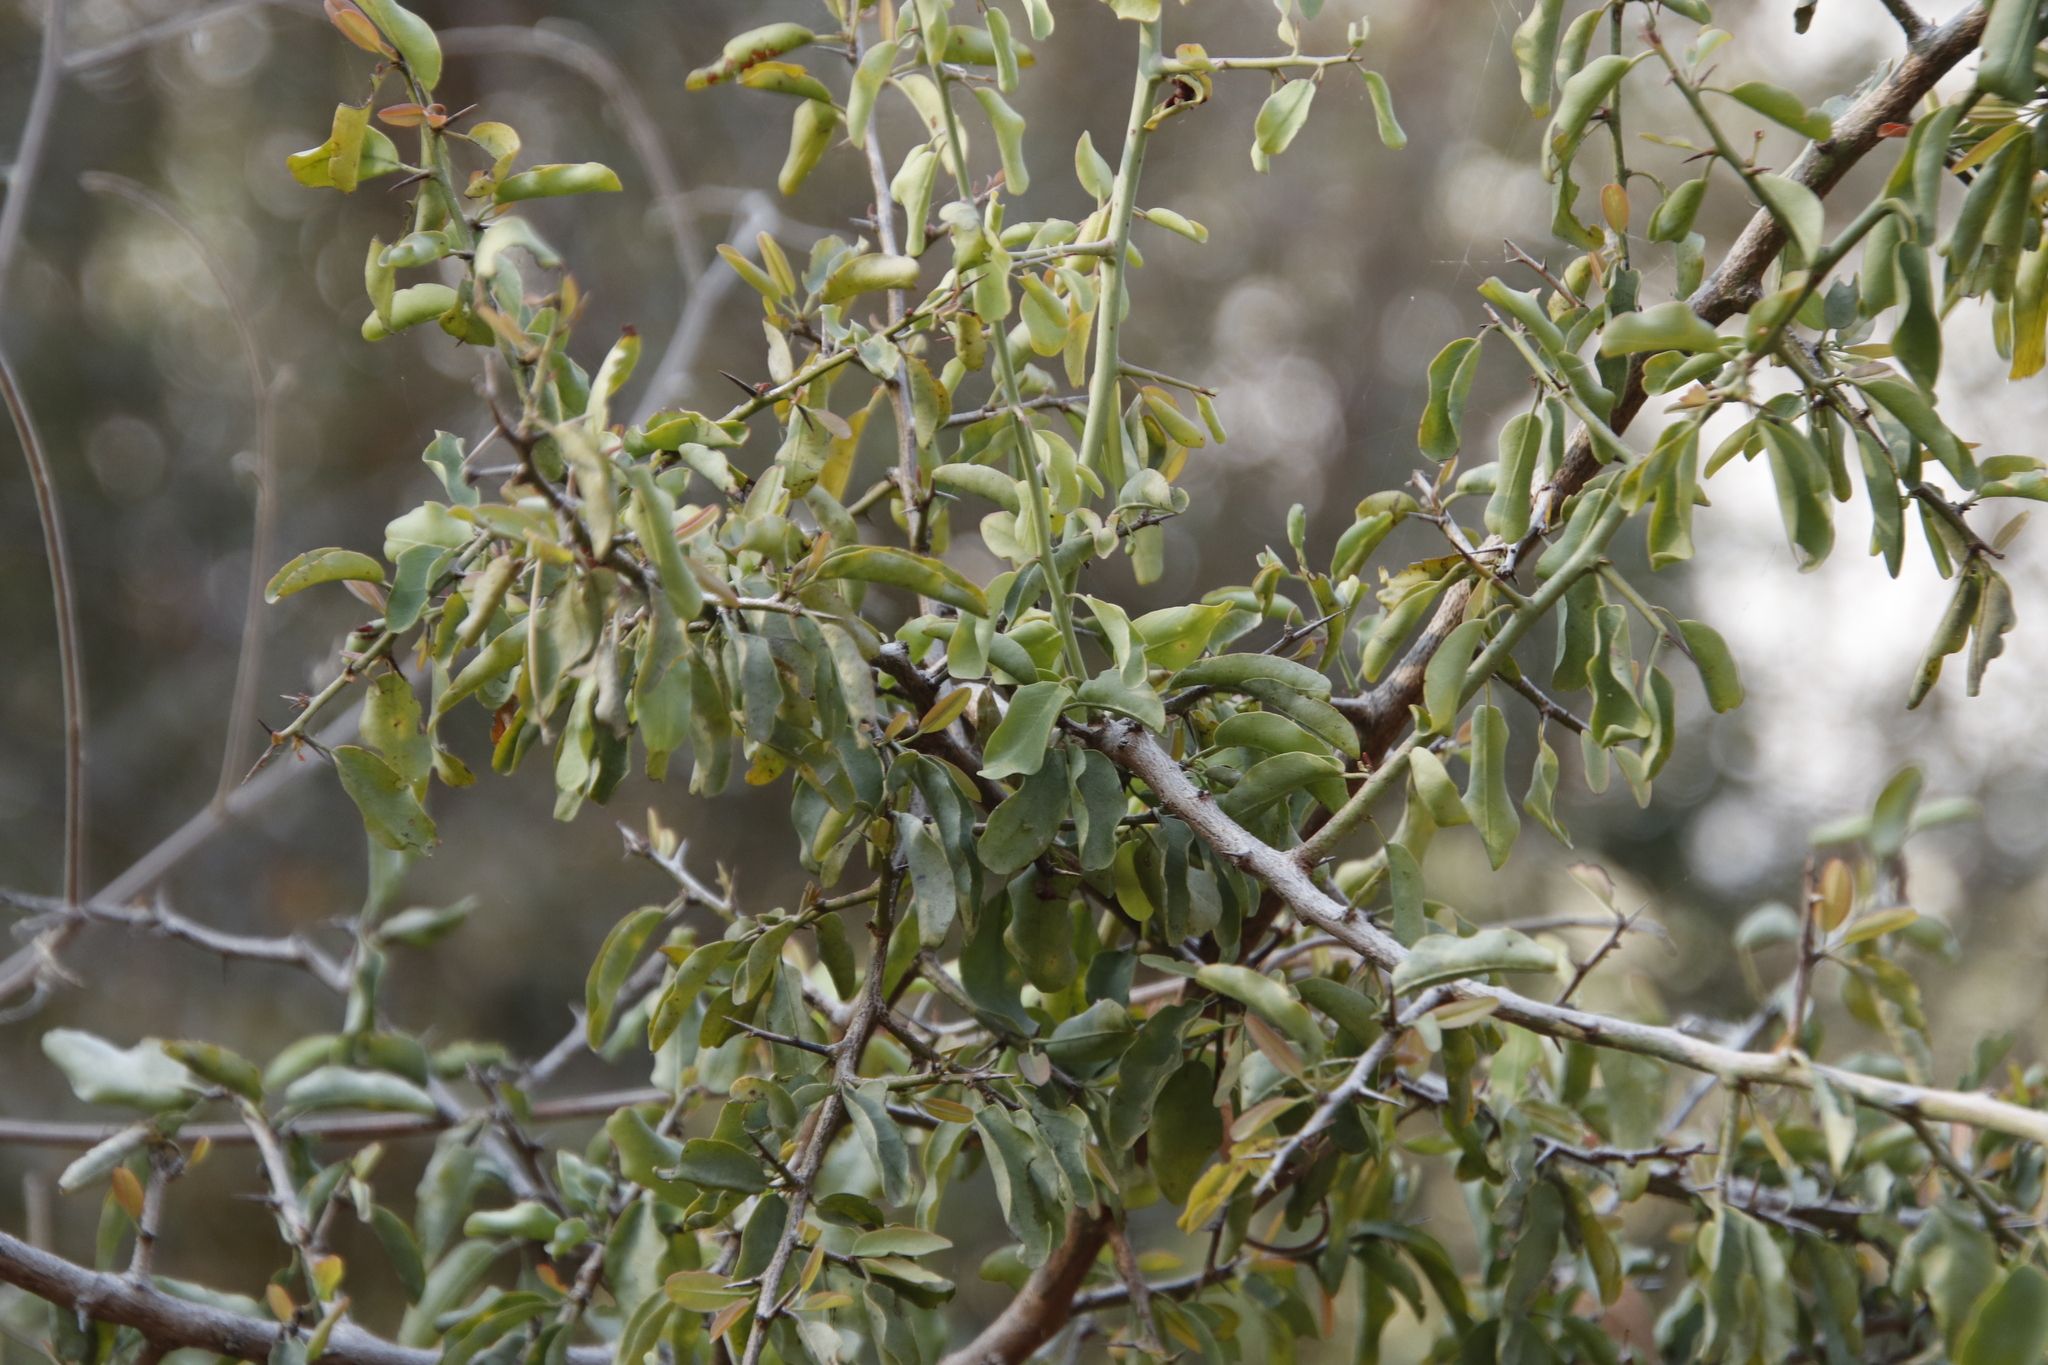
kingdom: Plantae
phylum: Tracheophyta
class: Magnoliopsida
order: Santalales
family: Ximeniaceae
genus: Ximenia
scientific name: Ximenia americana
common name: Tallowwood
